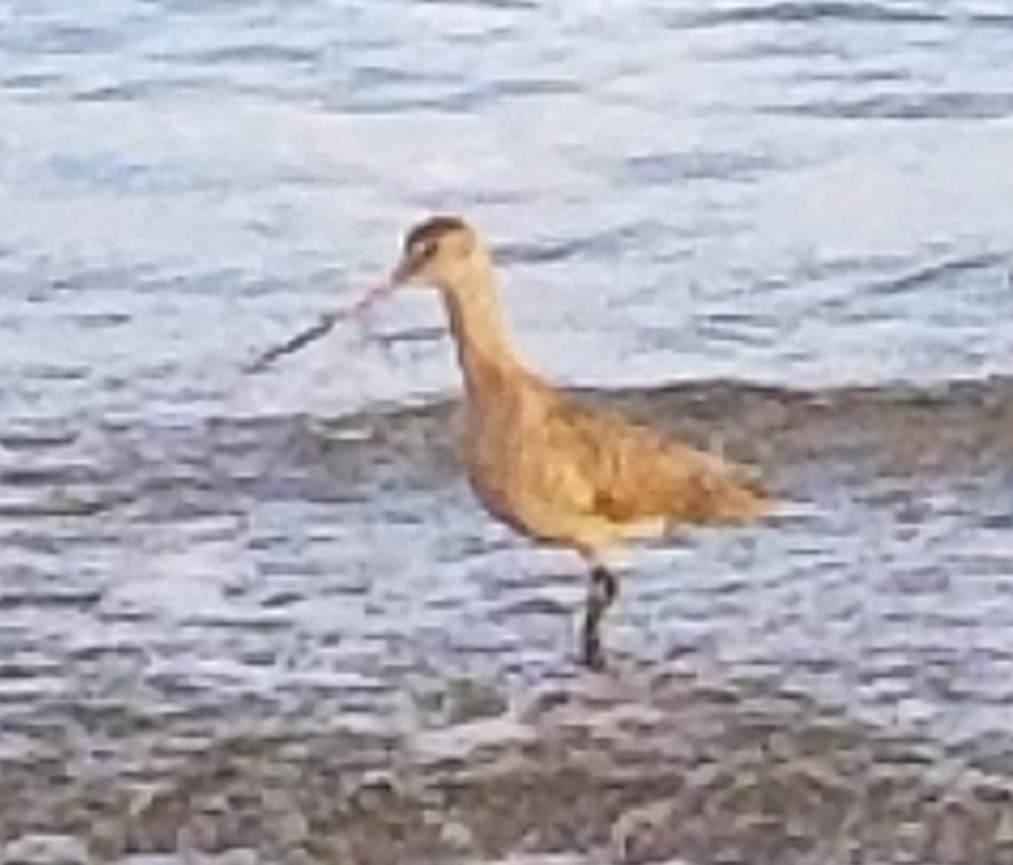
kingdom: Animalia
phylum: Chordata
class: Aves
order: Charadriiformes
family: Scolopacidae
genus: Limosa
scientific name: Limosa fedoa
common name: Marbled godwit
